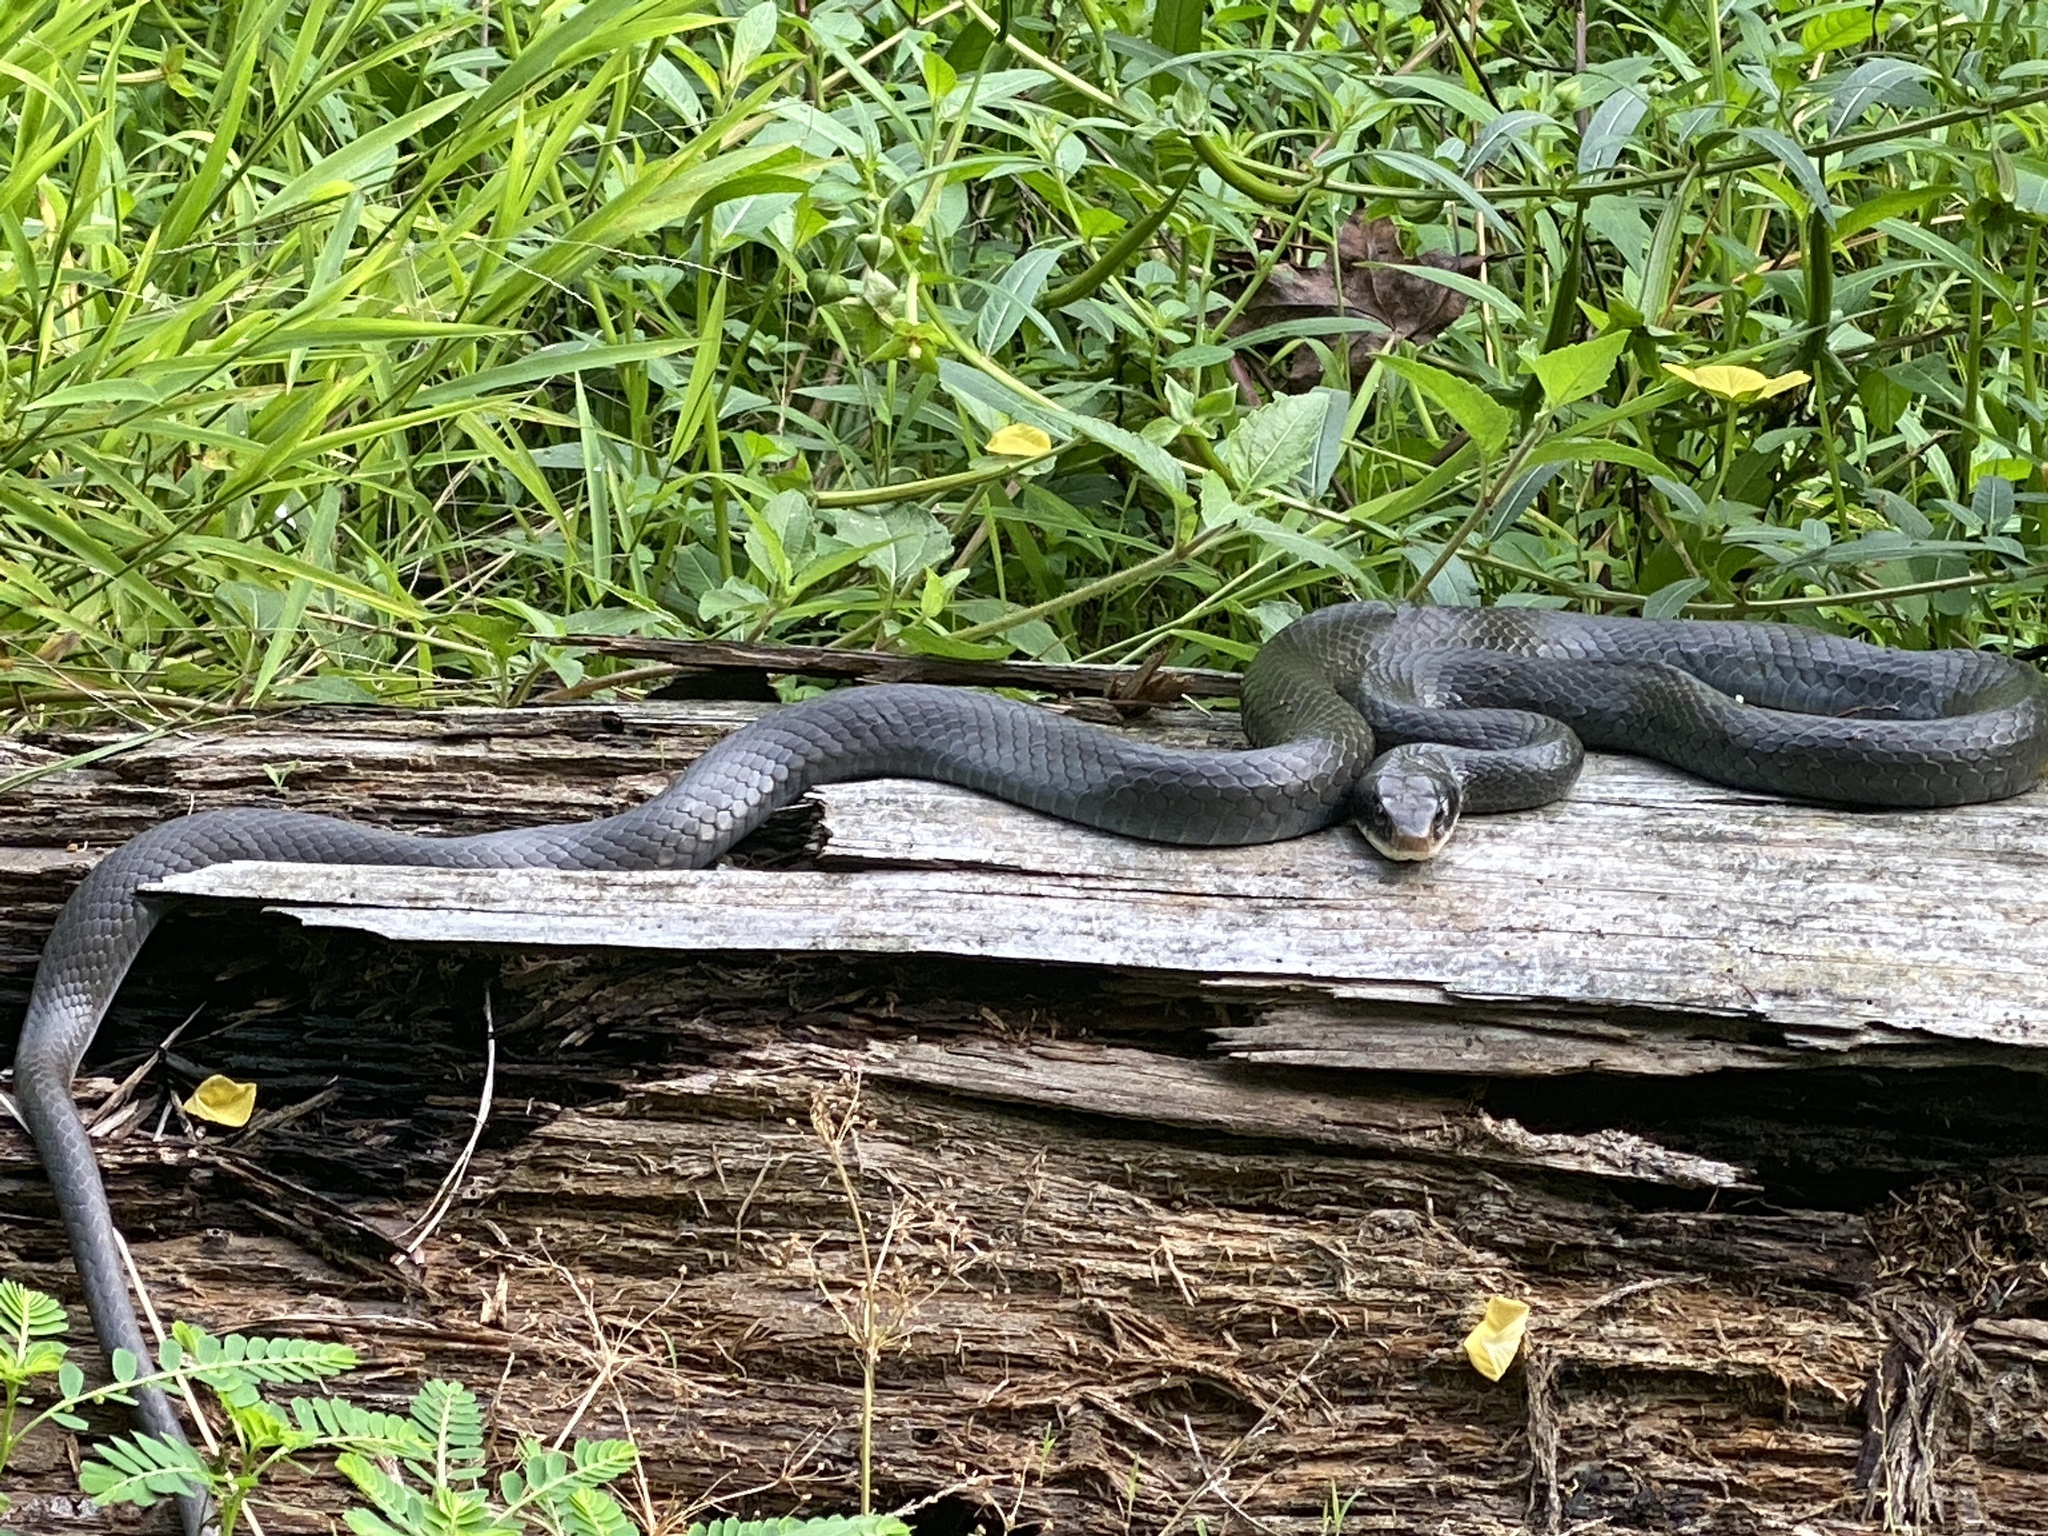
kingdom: Animalia
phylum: Chordata
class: Squamata
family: Colubridae
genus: Coluber
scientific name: Coluber constrictor
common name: Eastern racer
